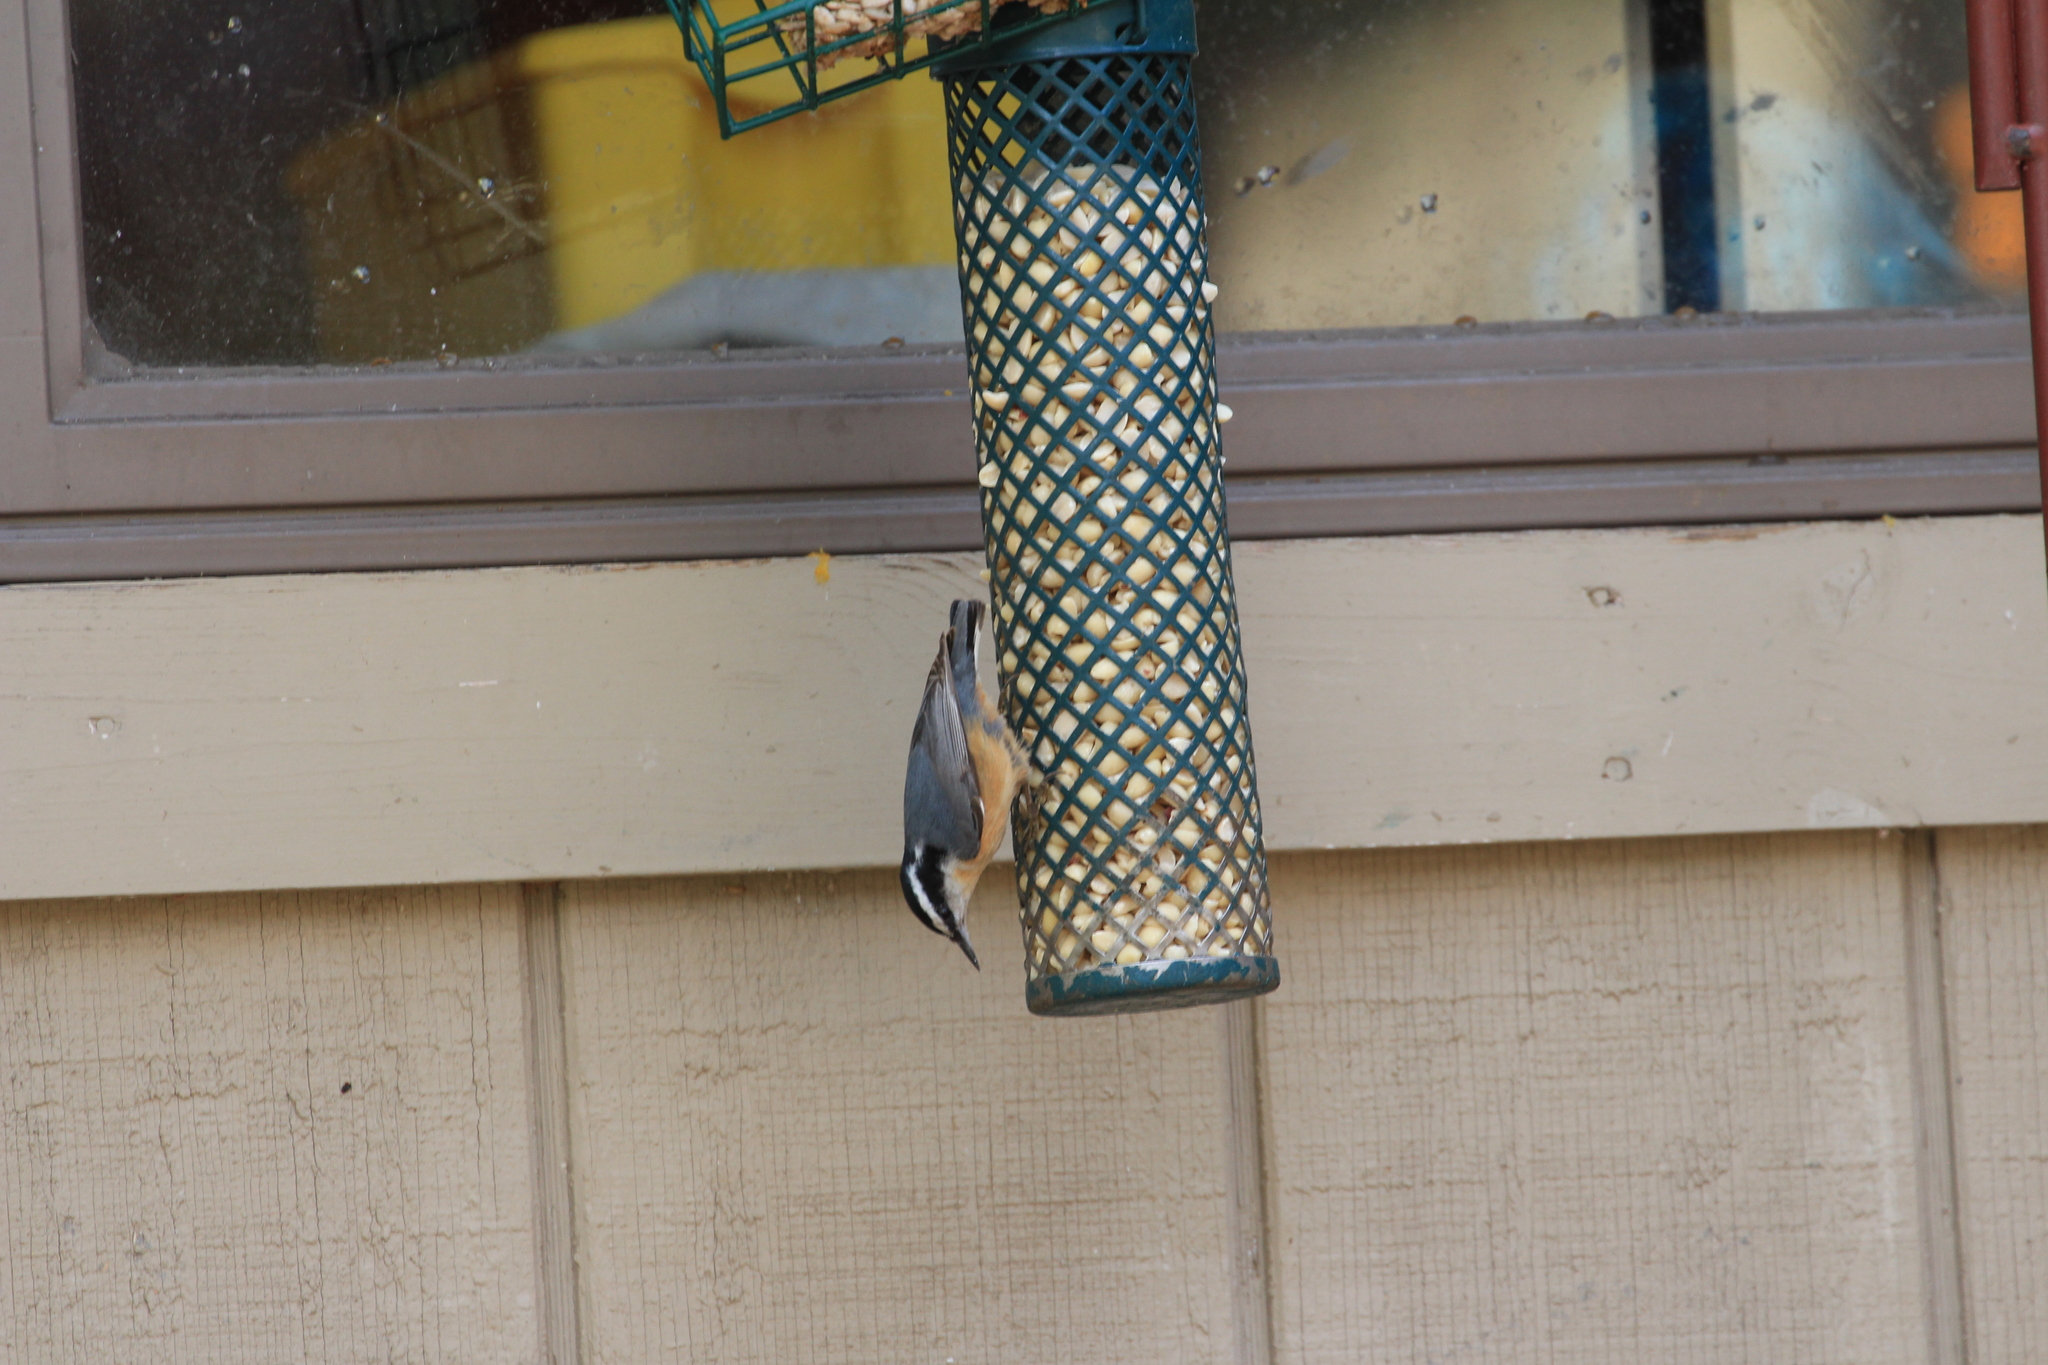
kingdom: Animalia
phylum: Chordata
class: Aves
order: Passeriformes
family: Sittidae
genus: Sitta
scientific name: Sitta canadensis
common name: Red-breasted nuthatch
